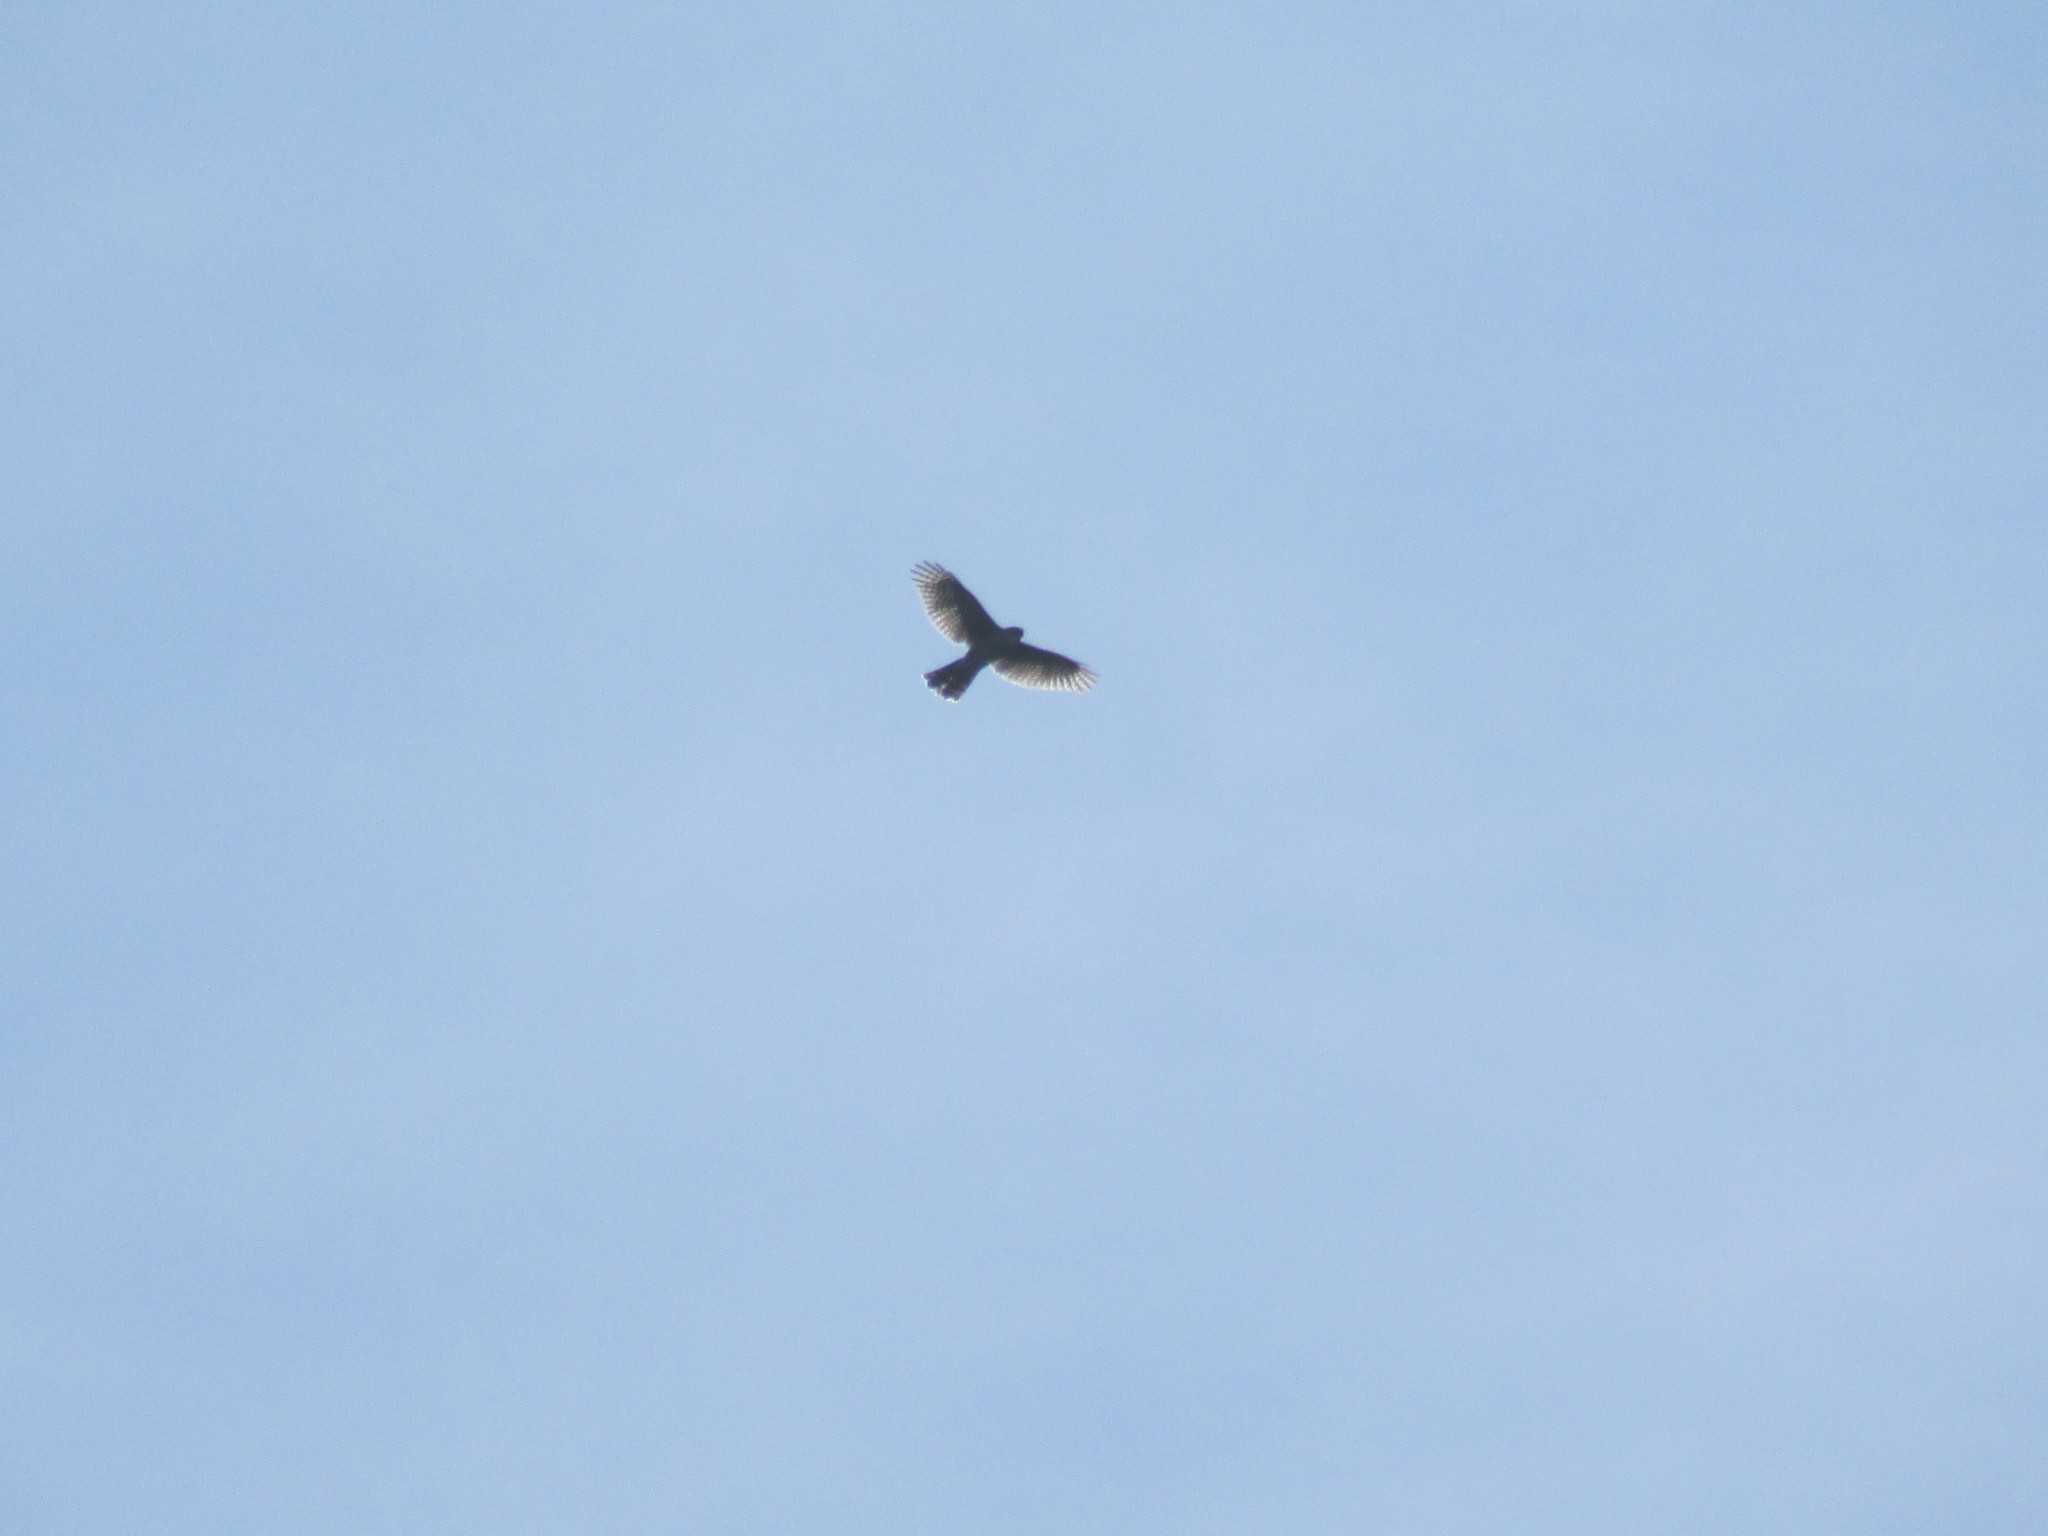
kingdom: Animalia
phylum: Chordata
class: Aves
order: Accipitriformes
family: Accipitridae
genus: Accipiter
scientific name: Accipiter striatus
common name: Sharp-shinned hawk
